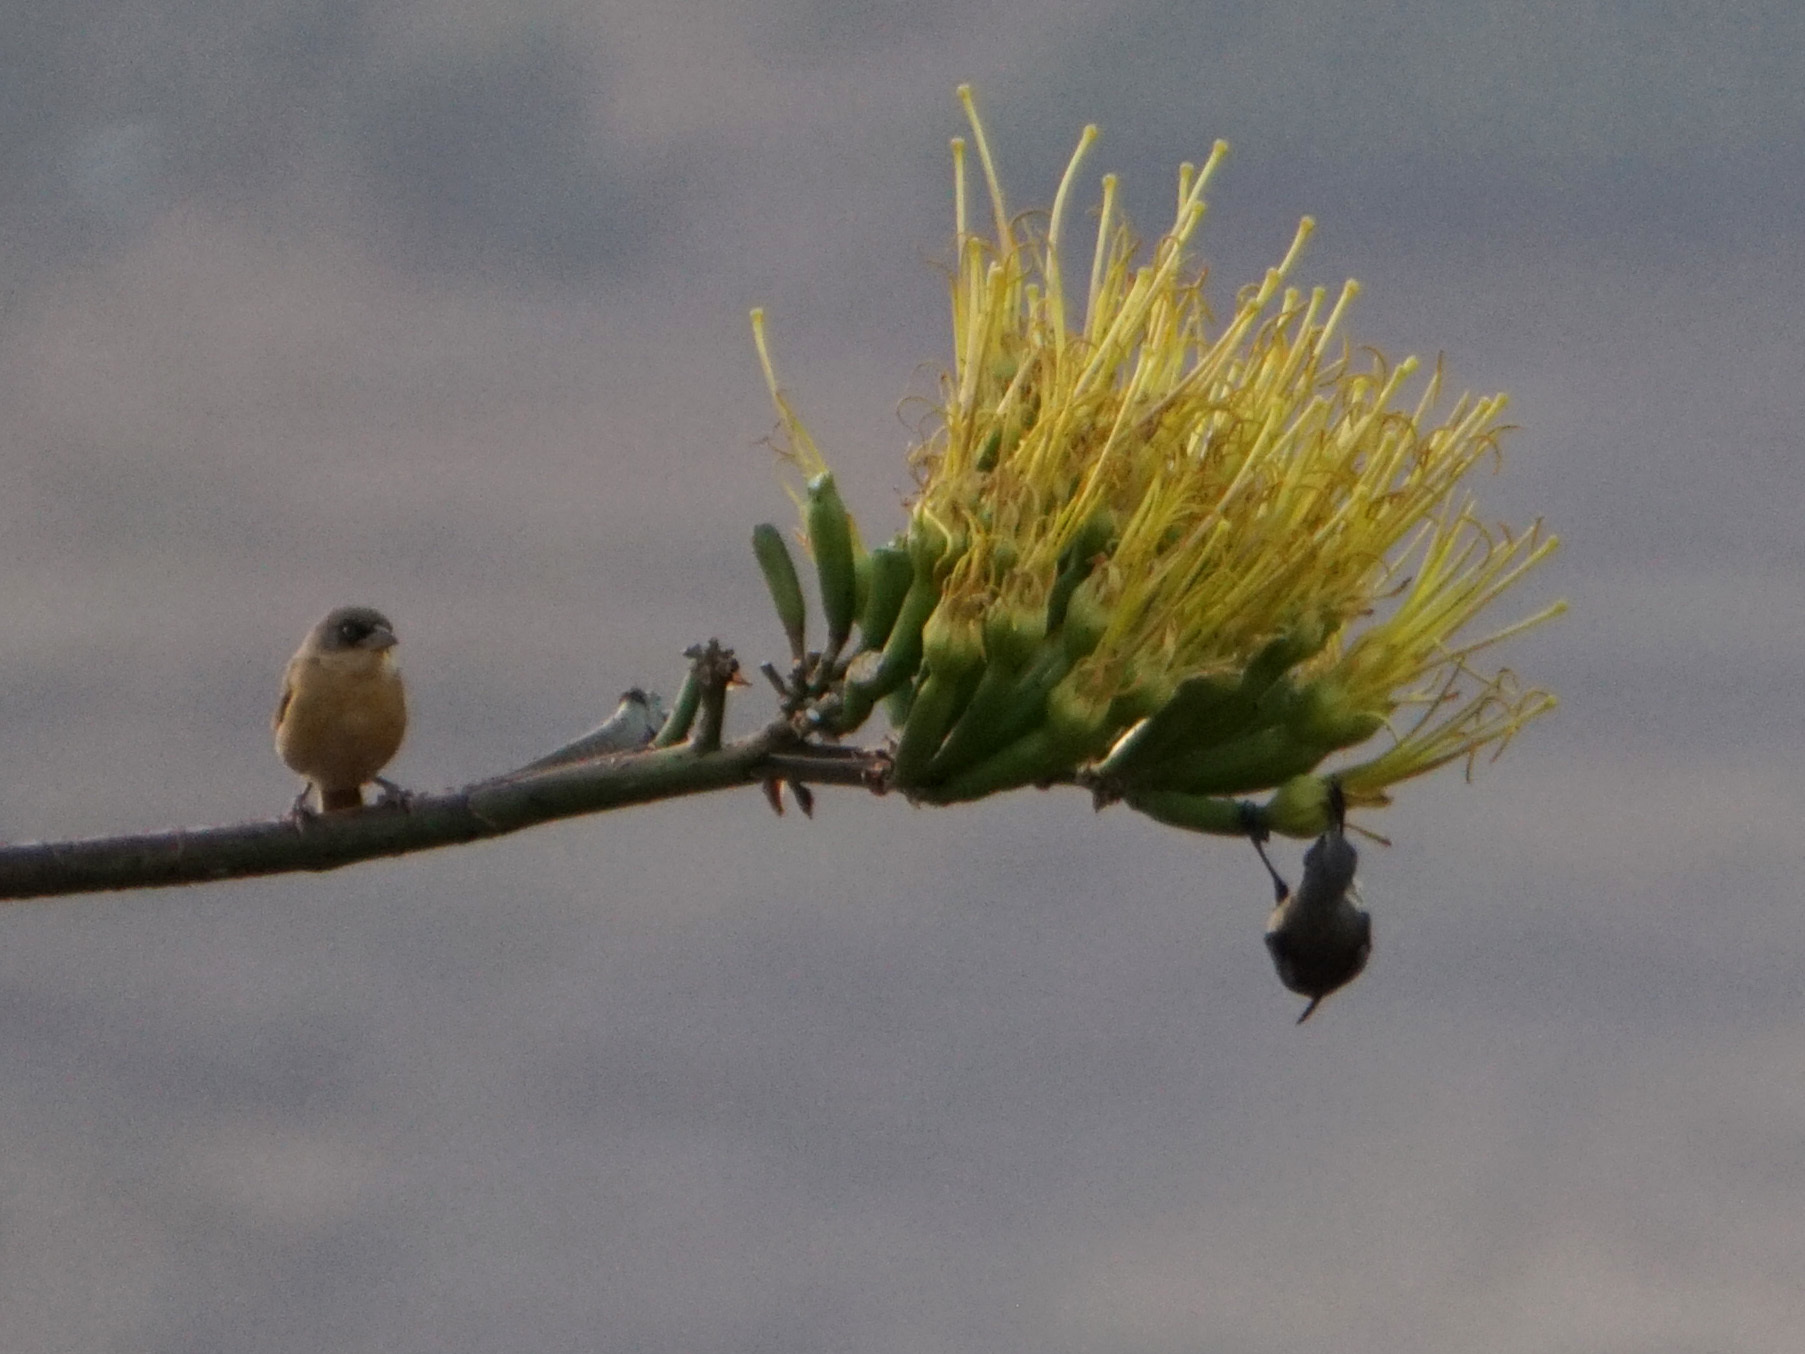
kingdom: Animalia
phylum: Chordata
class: Aves
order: Passeriformes
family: Nectariniidae
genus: Nectarinia
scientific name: Nectarinia tacazze
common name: Tacazze sunbird
